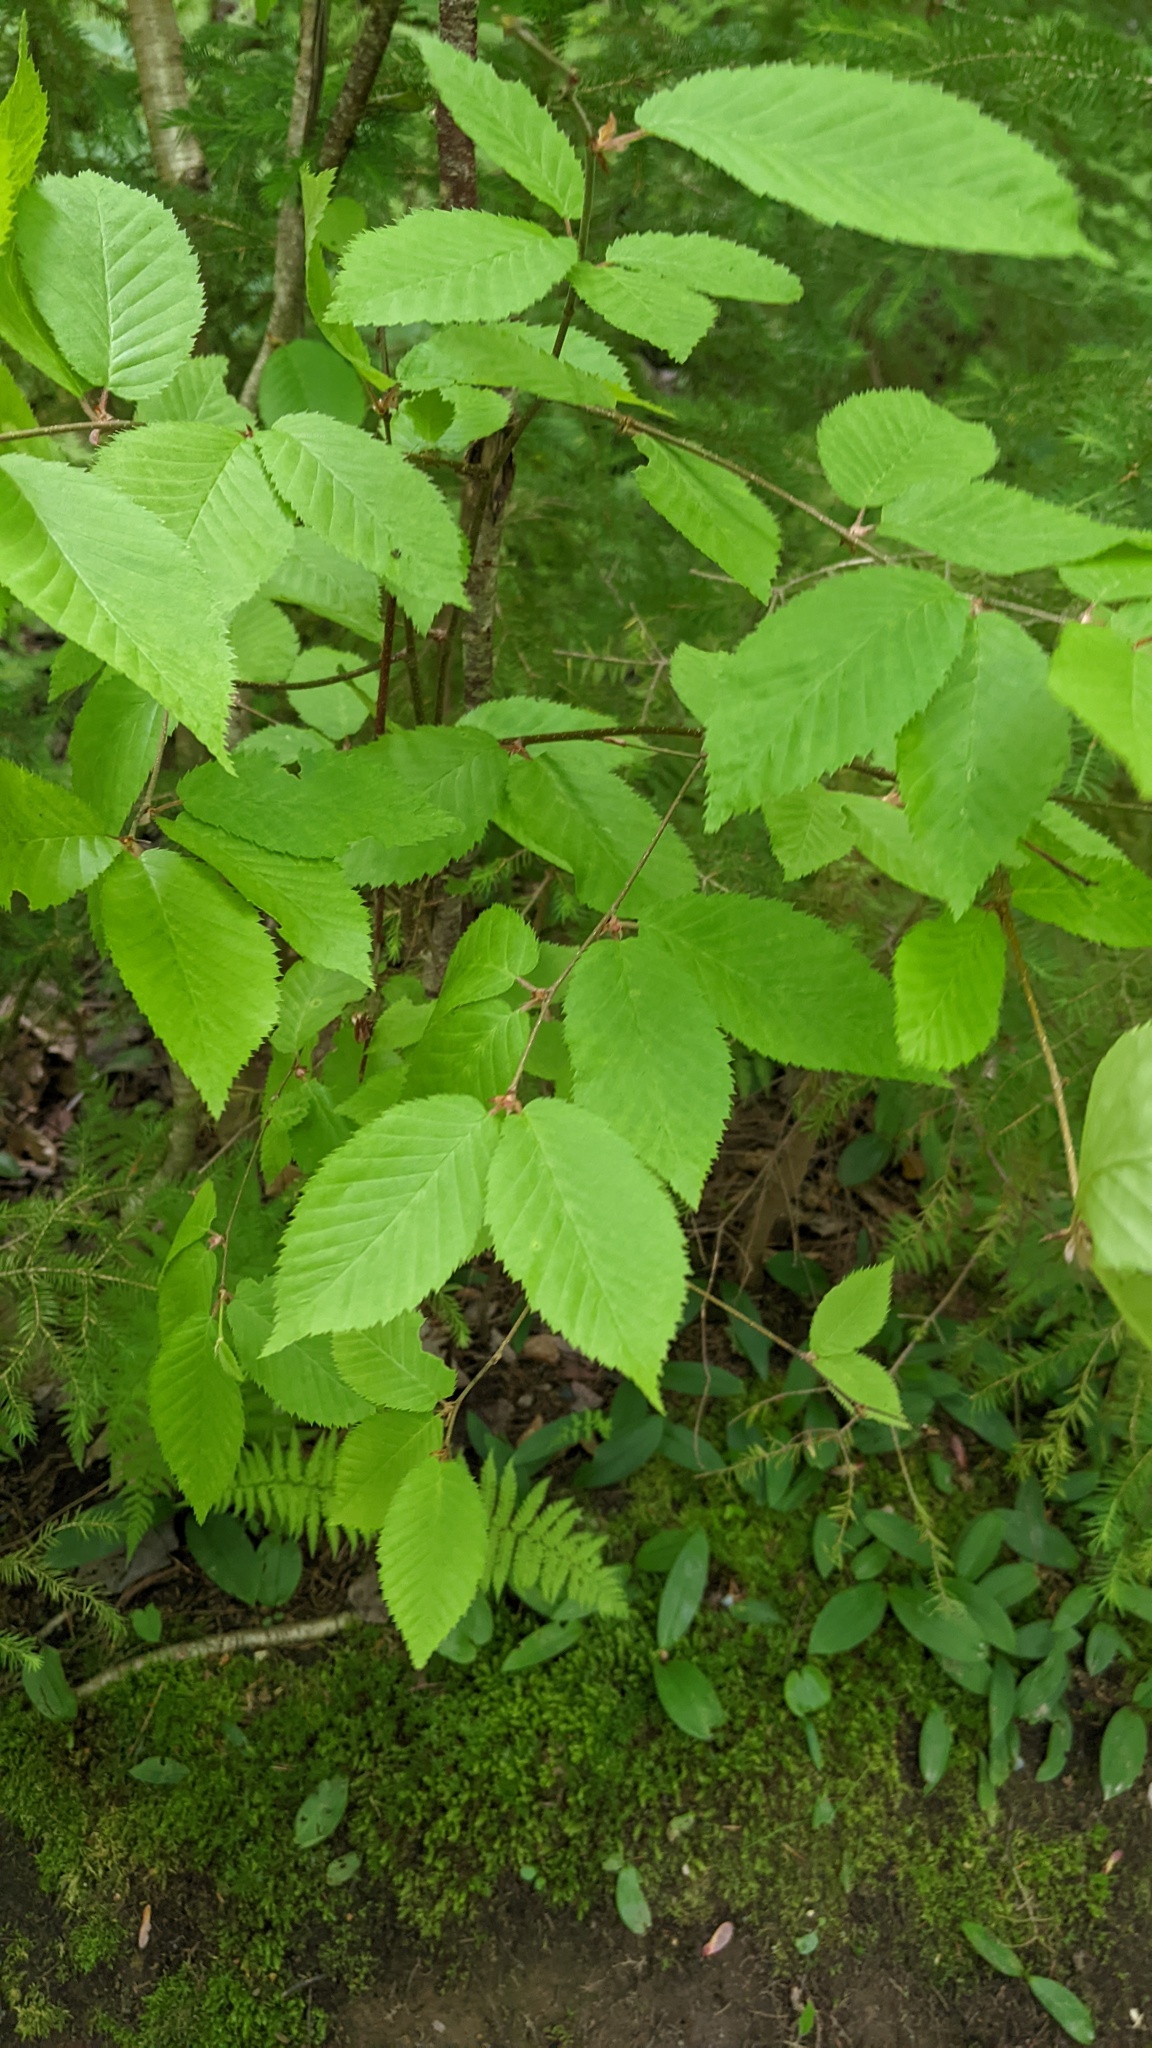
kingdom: Plantae
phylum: Tracheophyta
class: Magnoliopsida
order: Fagales
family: Betulaceae
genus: Betula
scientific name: Betula alleghaniensis
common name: Yellow birch
